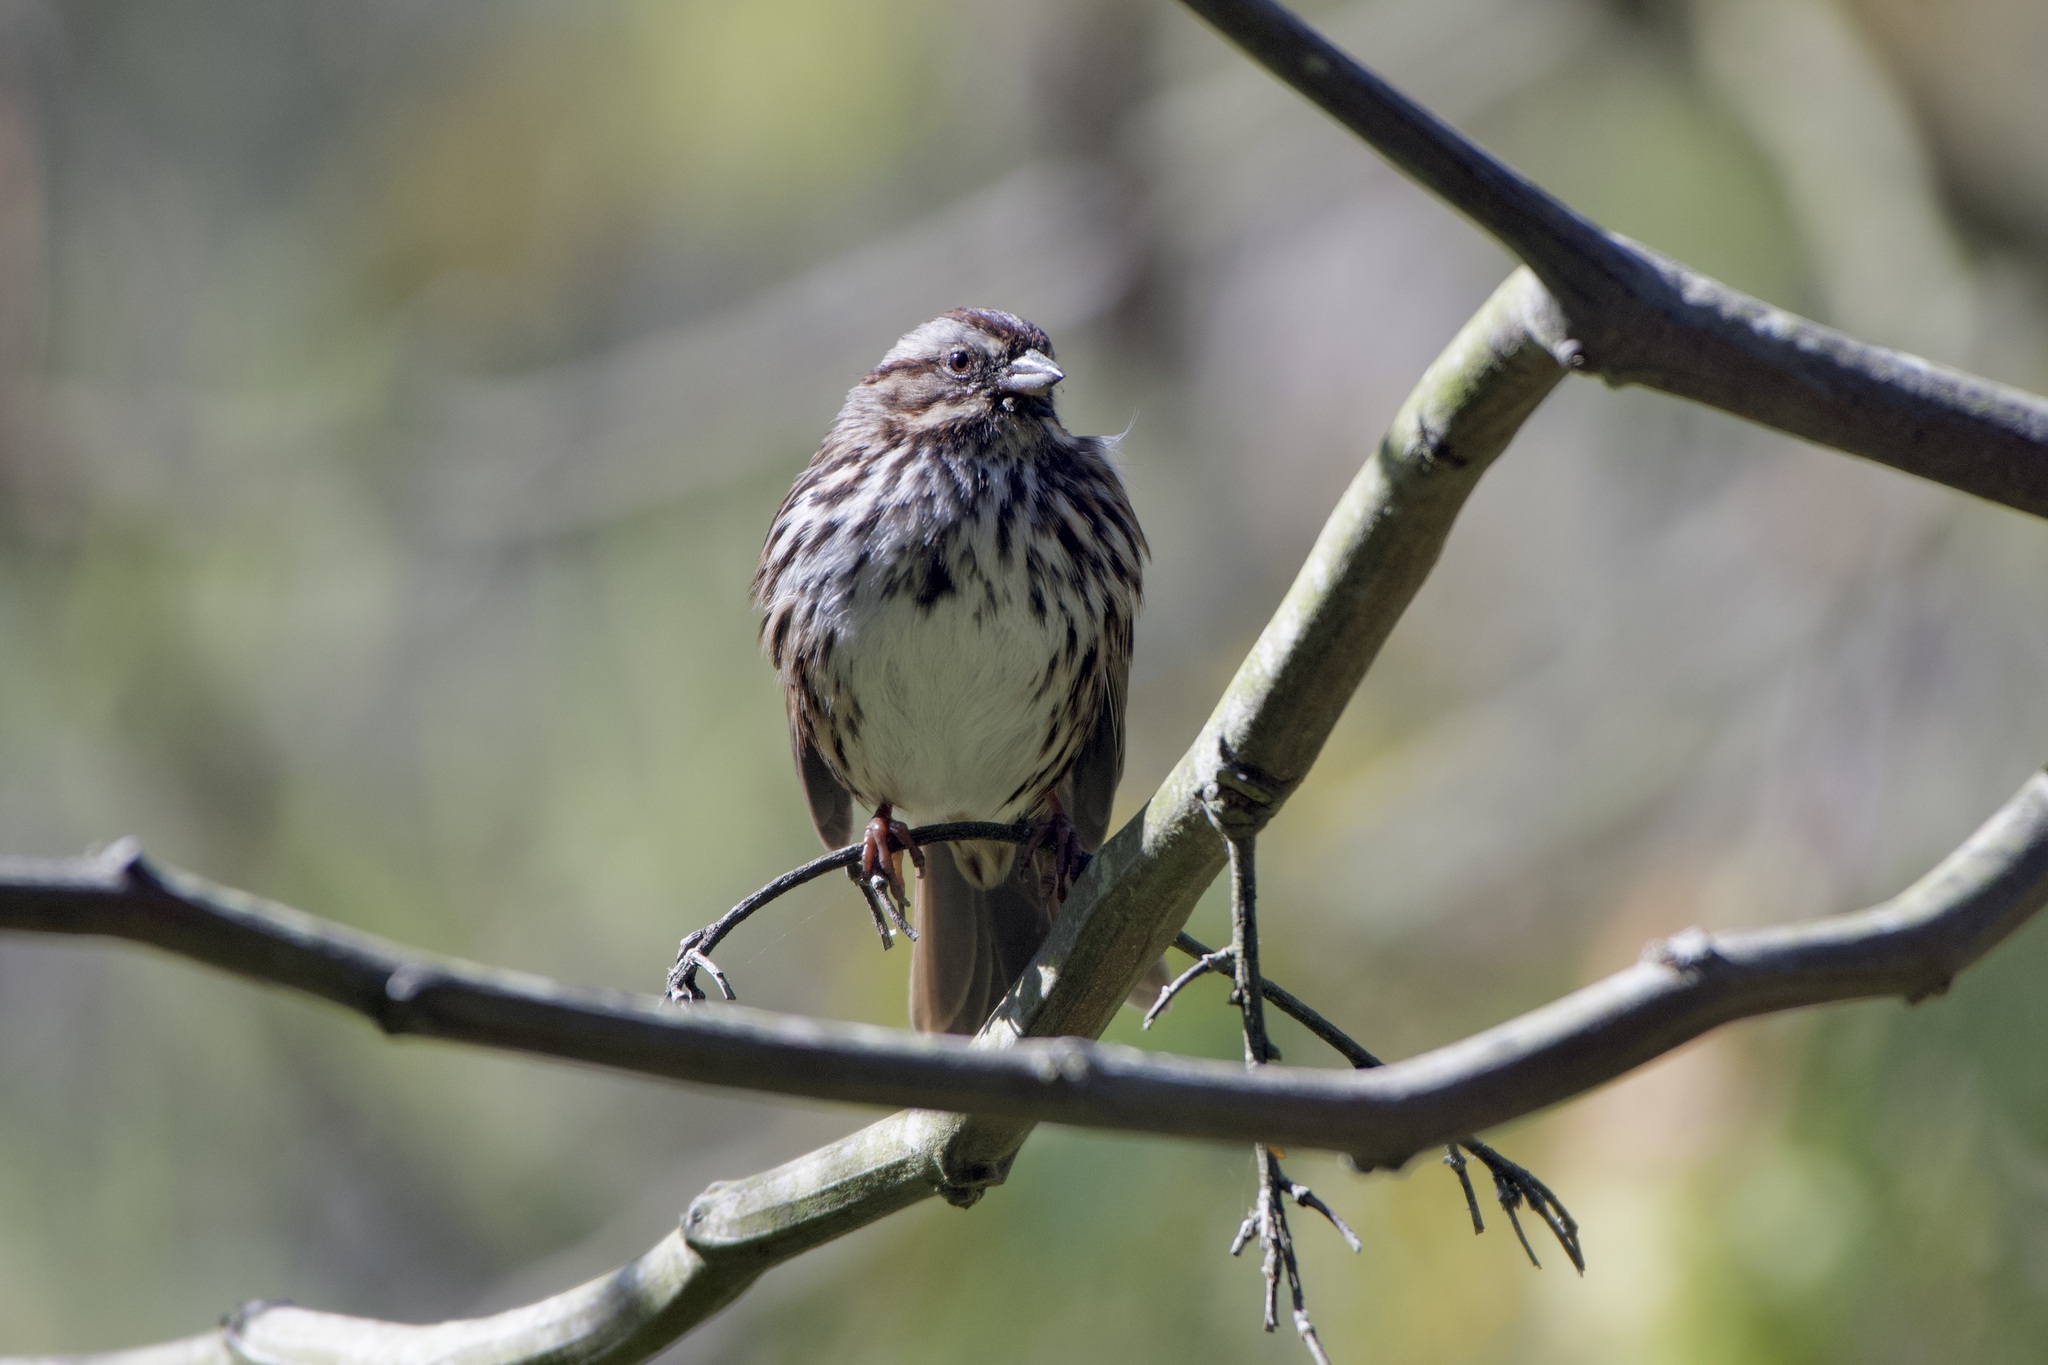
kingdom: Animalia
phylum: Chordata
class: Aves
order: Passeriformes
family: Passerellidae
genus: Melospiza
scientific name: Melospiza melodia
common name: Song sparrow
